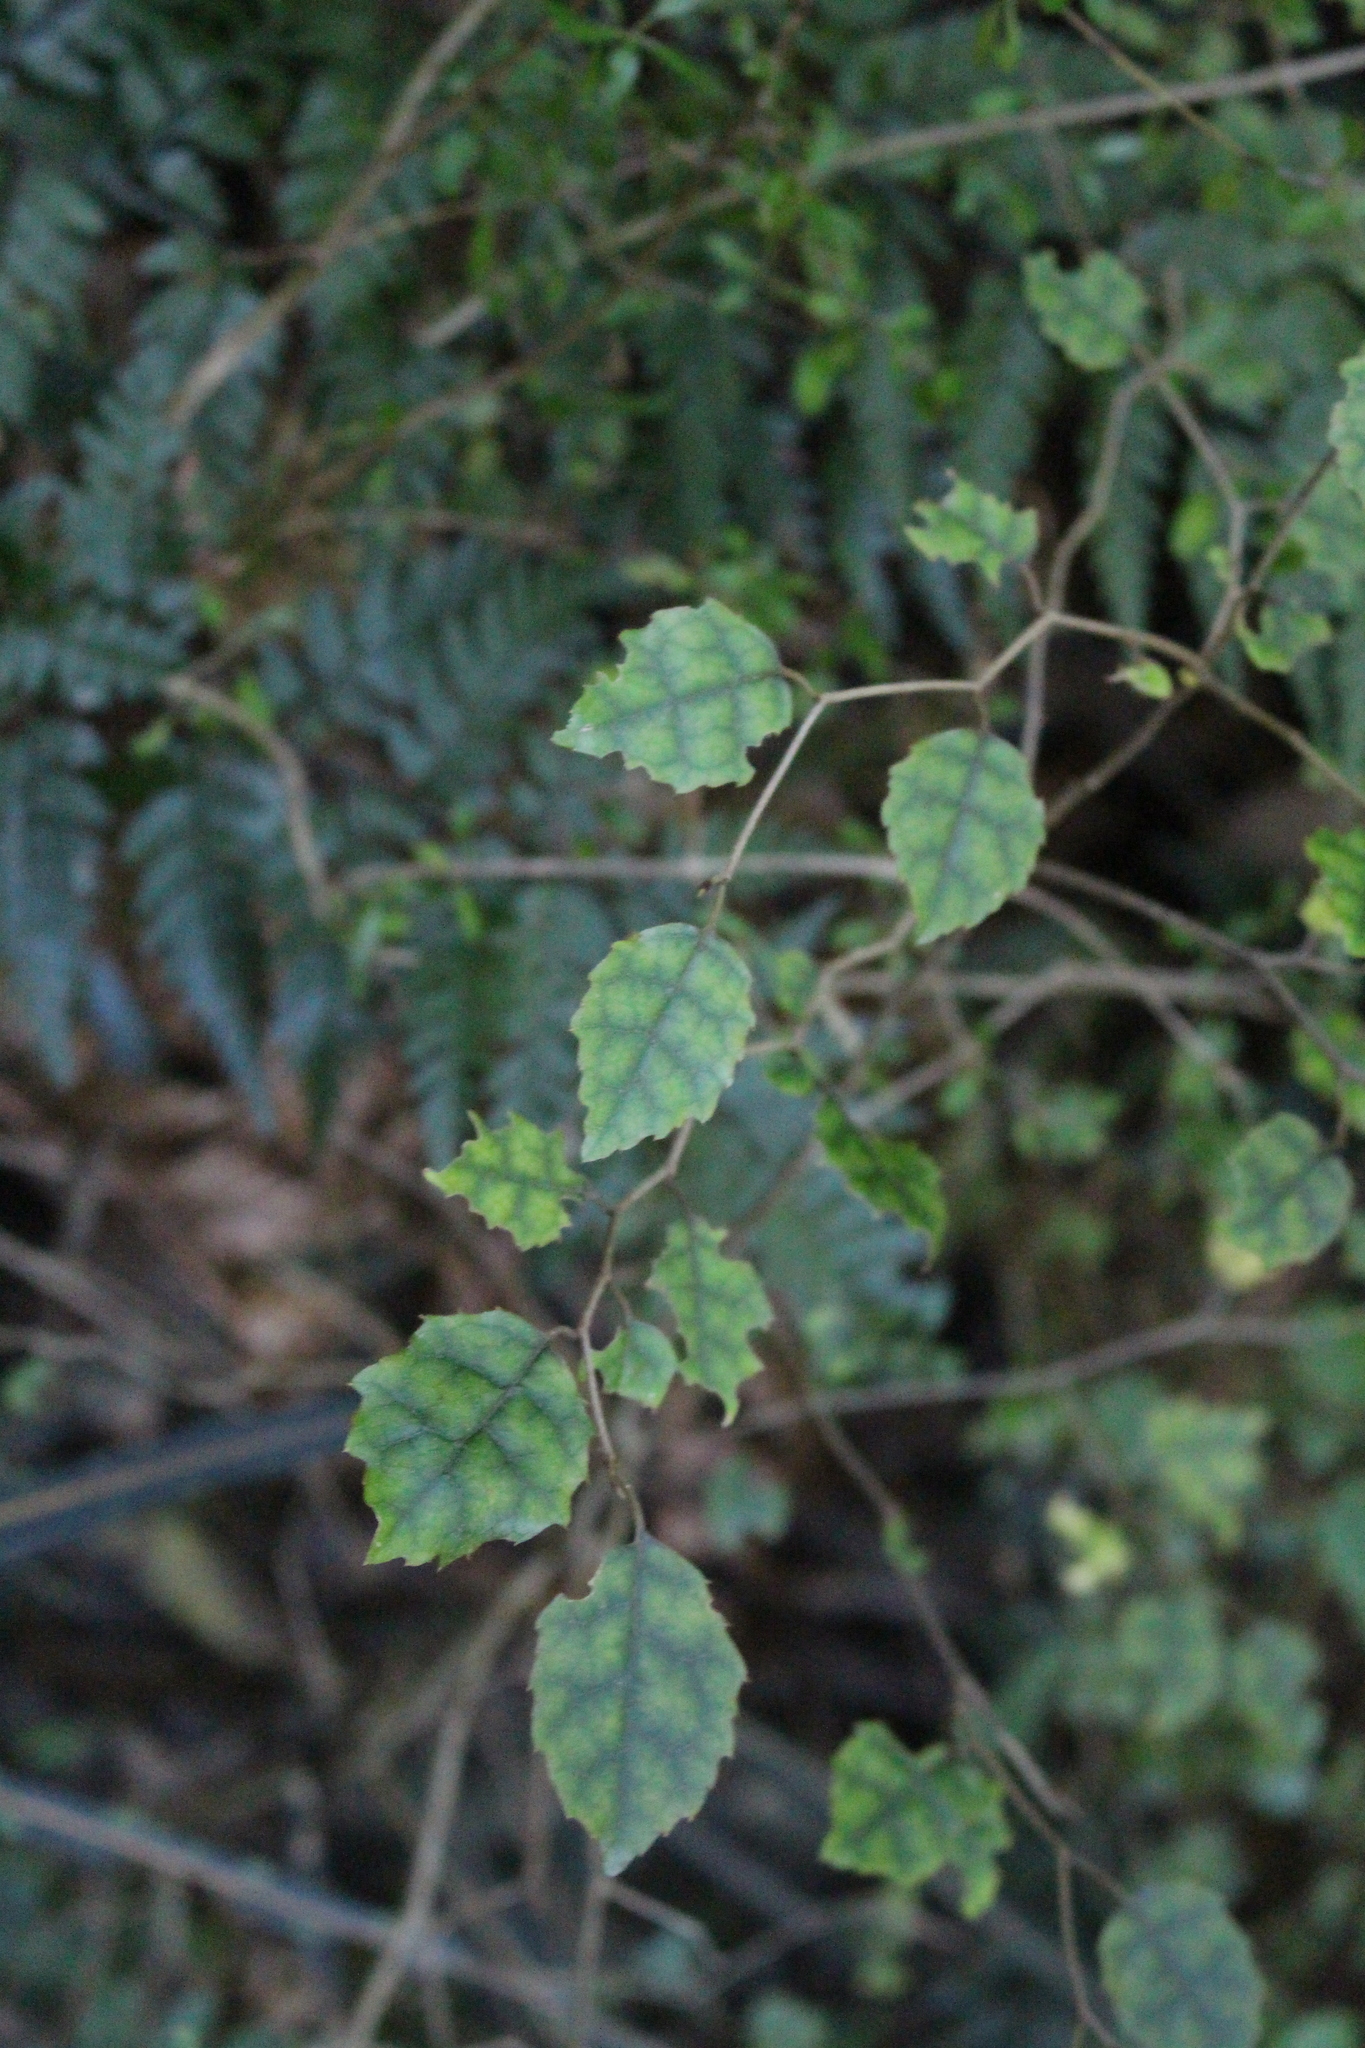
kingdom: Plantae
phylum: Tracheophyta
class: Magnoliopsida
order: Asterales
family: Rousseaceae
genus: Carpodetus
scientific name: Carpodetus serratus
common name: White mapau
